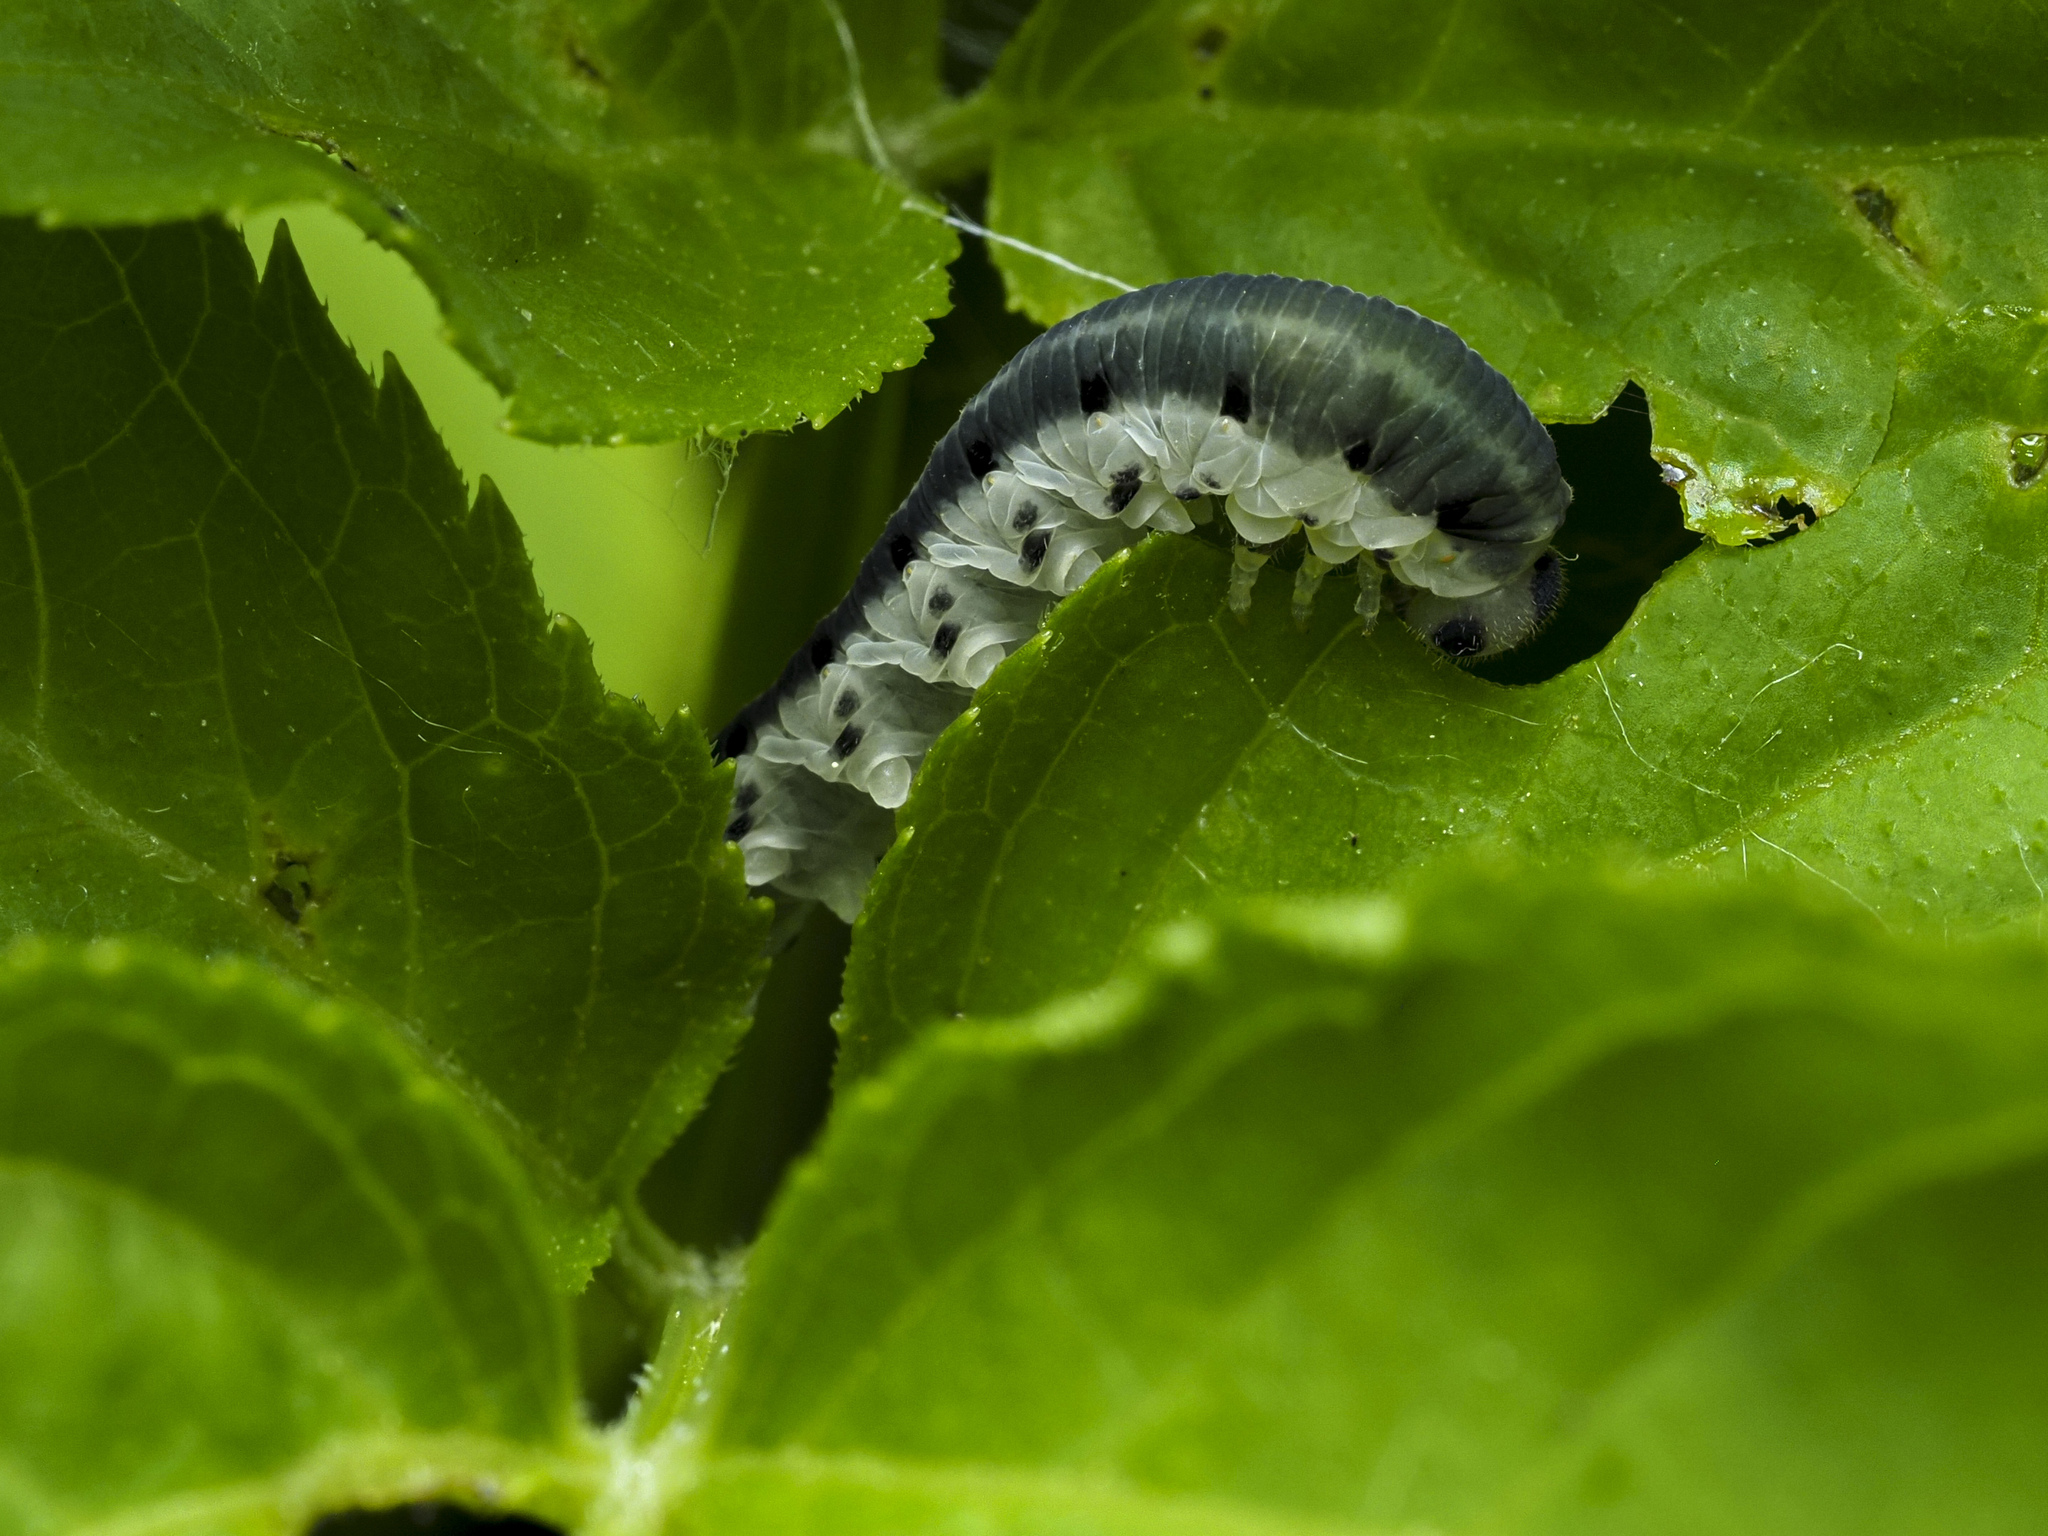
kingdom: Animalia
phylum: Arthropoda
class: Insecta
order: Hymenoptera
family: Tenthredinidae
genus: Macrophya
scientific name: Macrophya alboannulata
